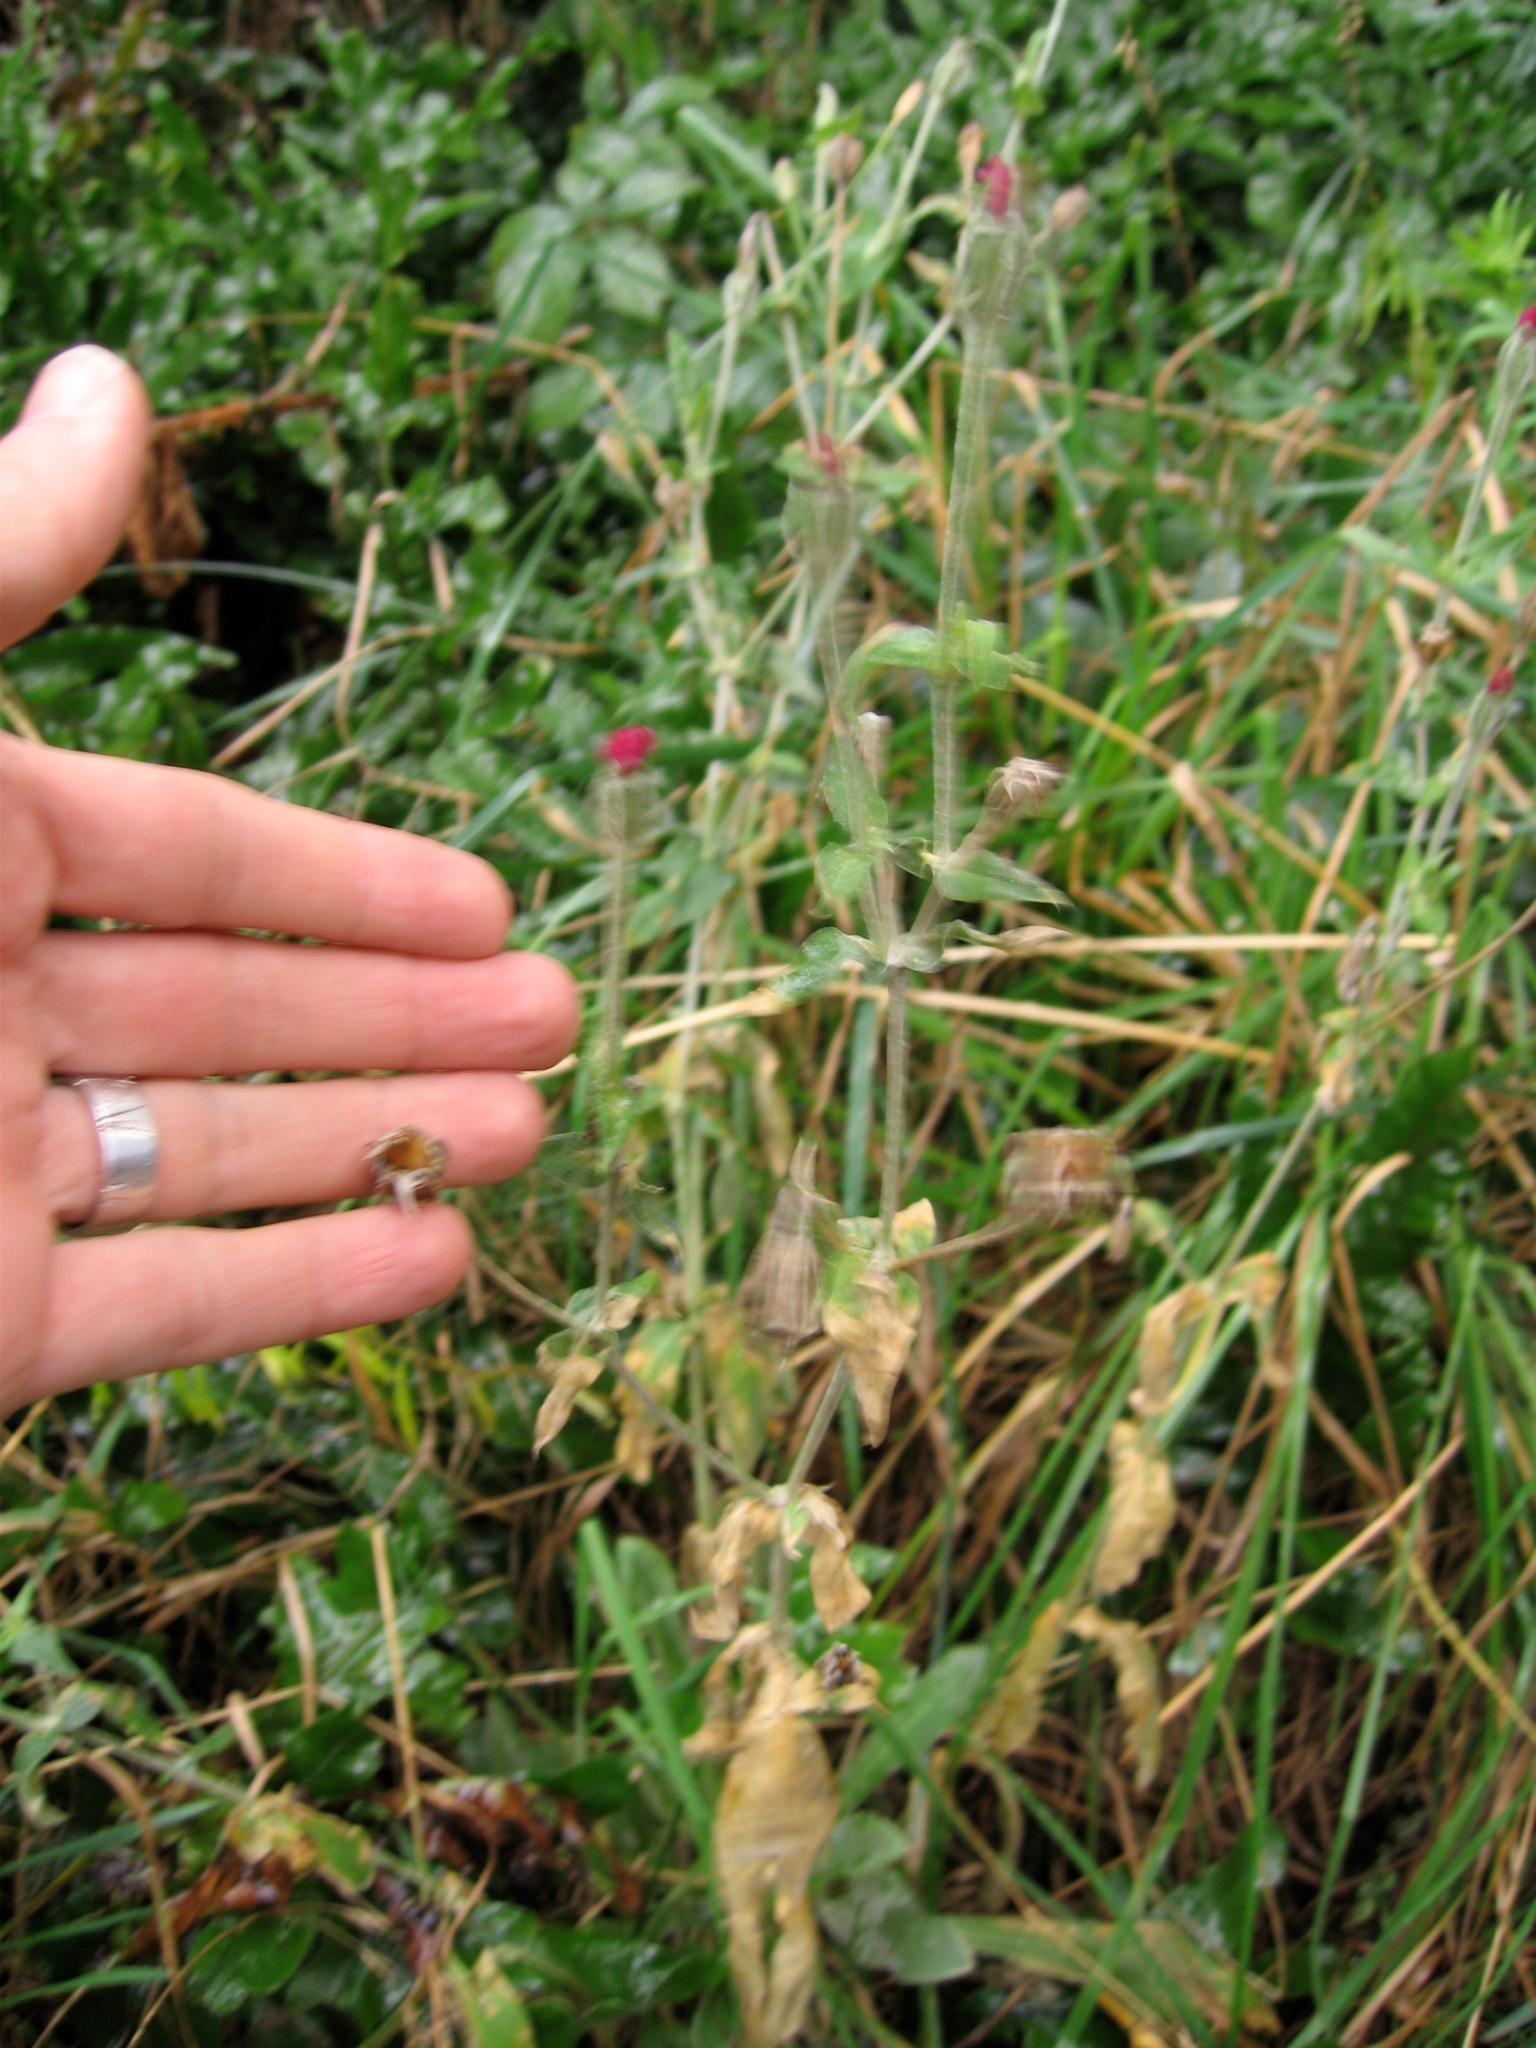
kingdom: Plantae
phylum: Tracheophyta
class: Magnoliopsida
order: Caryophyllales
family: Caryophyllaceae
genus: Silene
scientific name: Silene coronaria
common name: Rose campion
